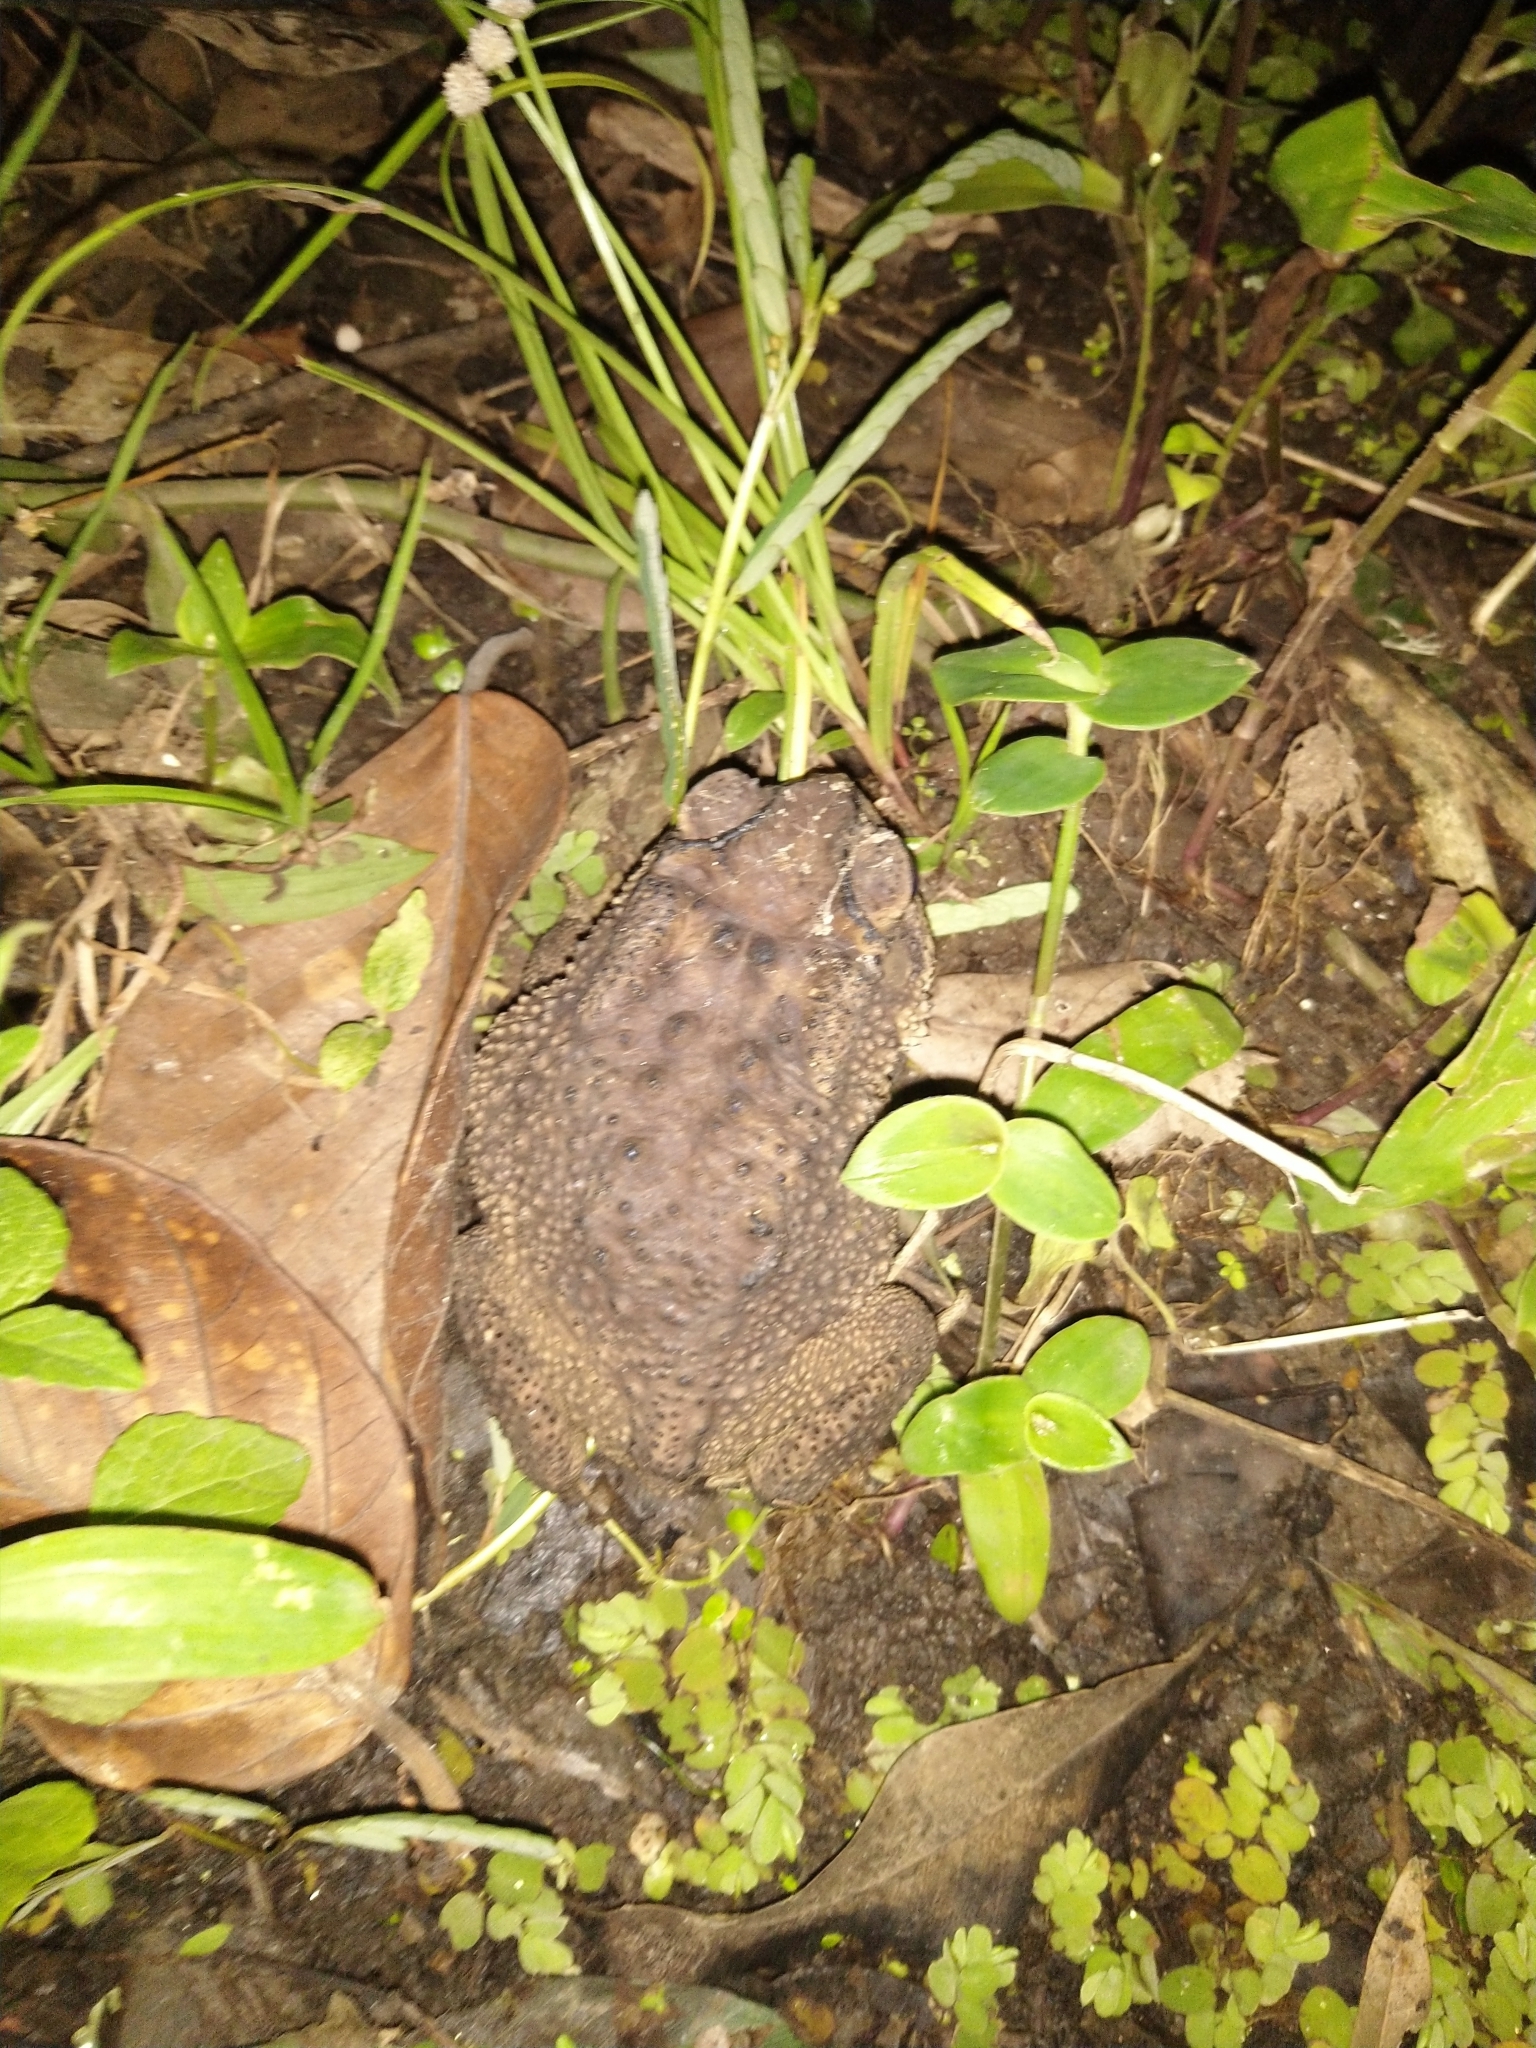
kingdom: Animalia
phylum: Chordata
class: Amphibia
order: Anura
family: Bufonidae
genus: Duttaphrynus
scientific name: Duttaphrynus melanostictus
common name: Common sunda toad
